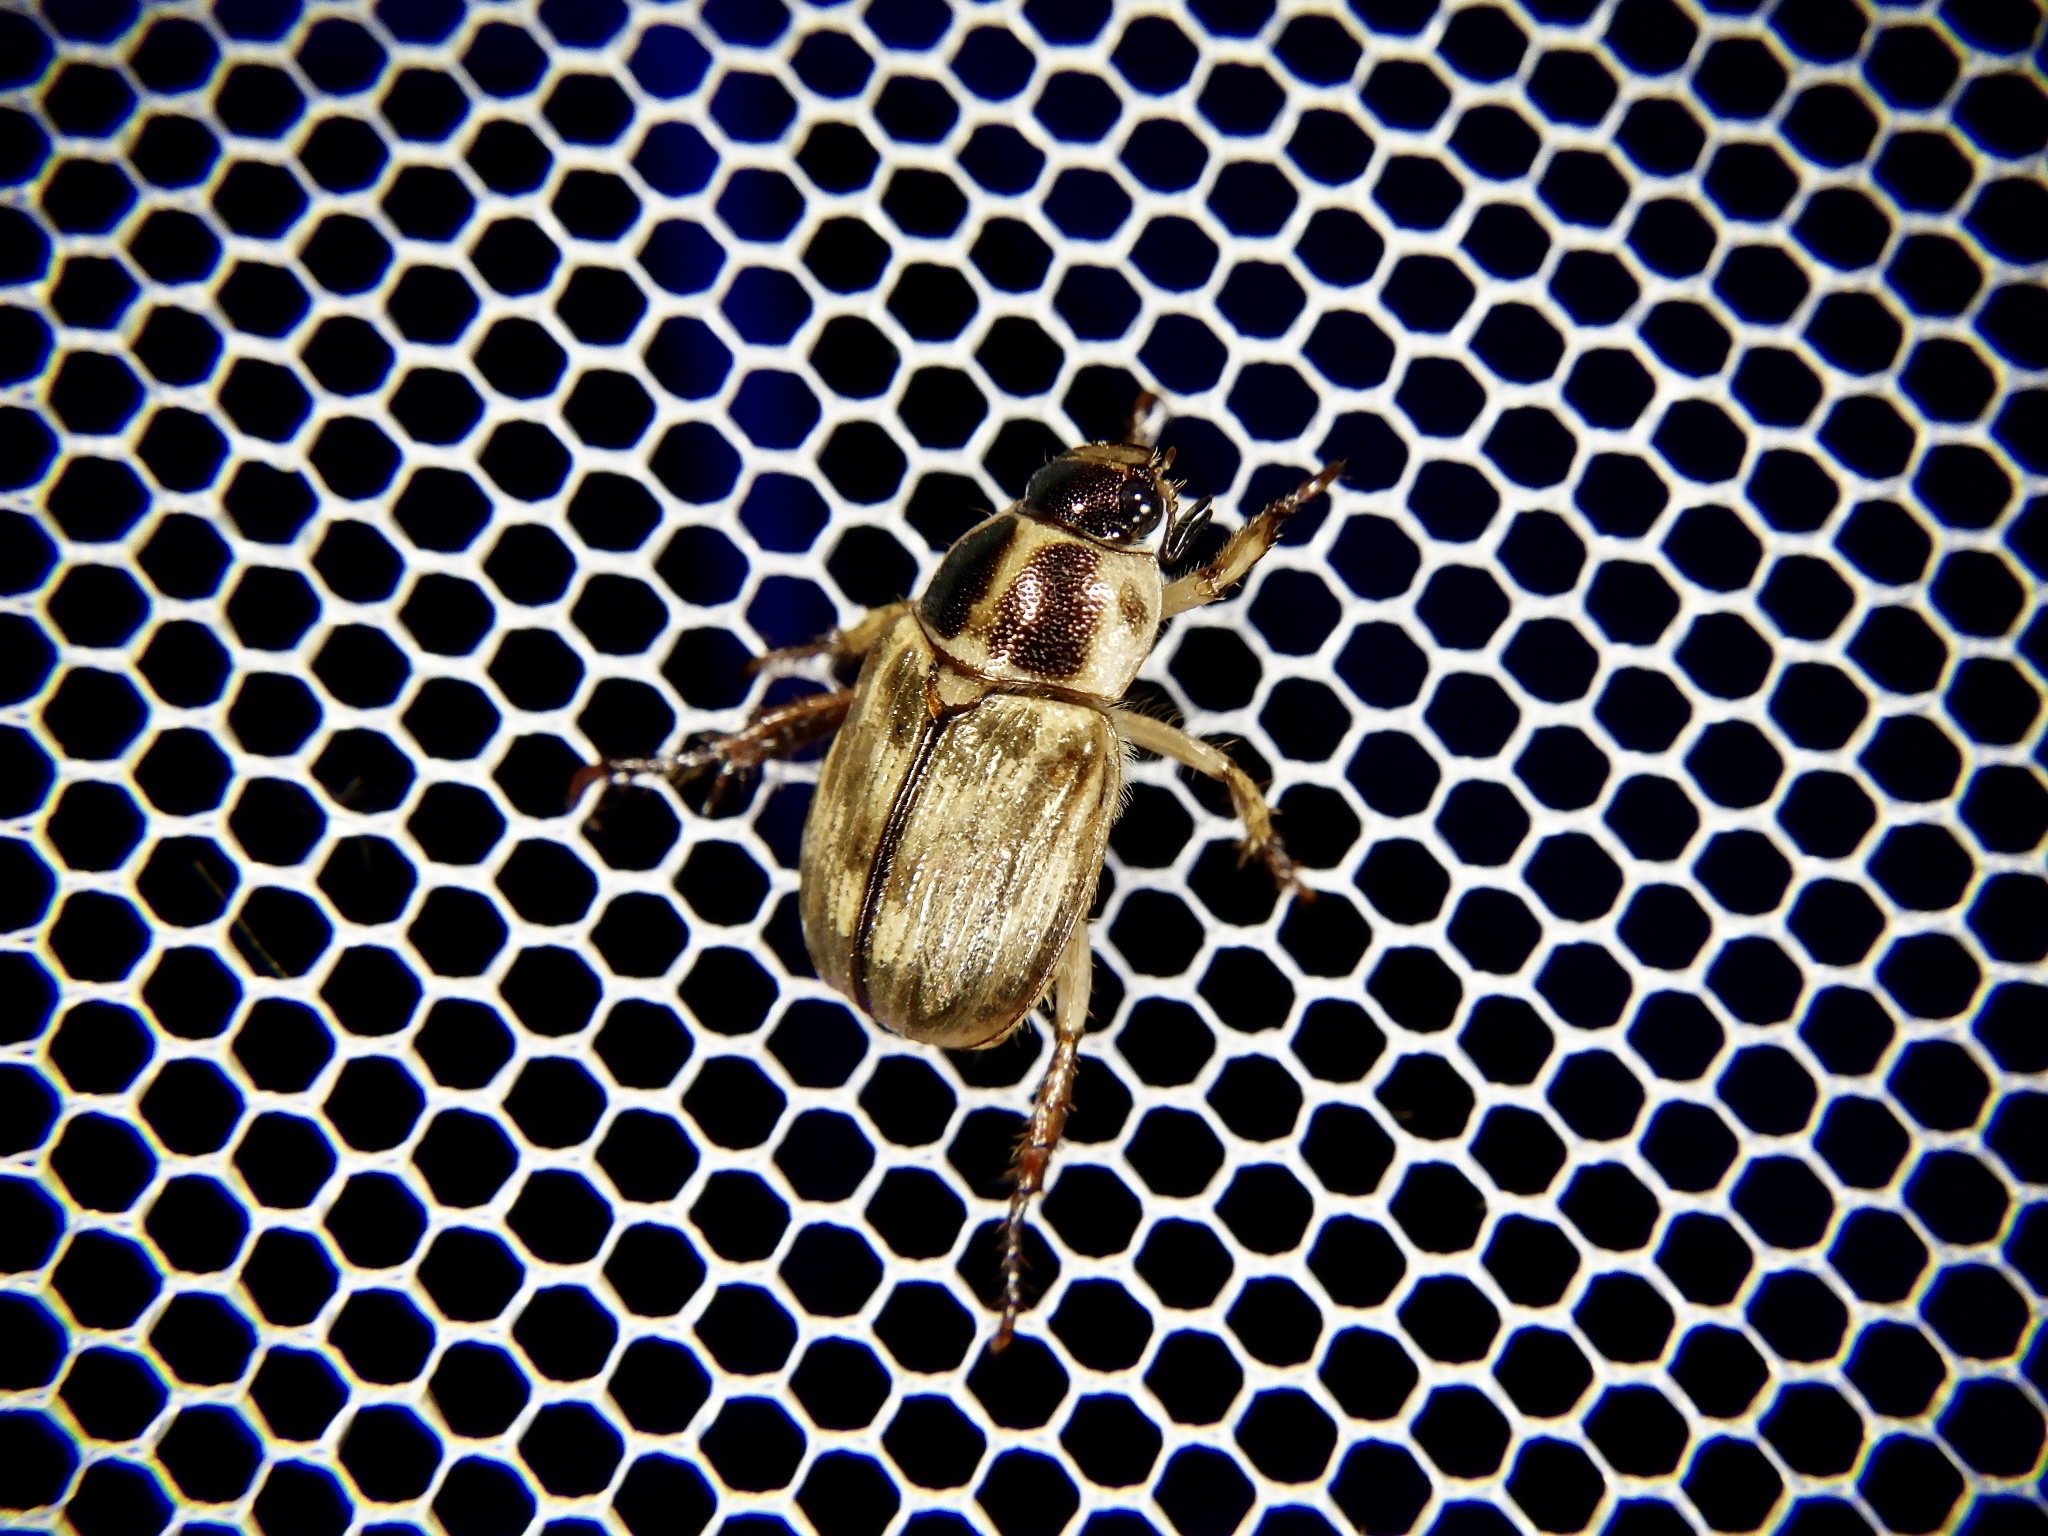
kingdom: Animalia
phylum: Arthropoda
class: Insecta
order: Coleoptera
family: Scarabaeidae
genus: Exomala
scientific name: Exomala orientalis
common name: Oriental beetle
